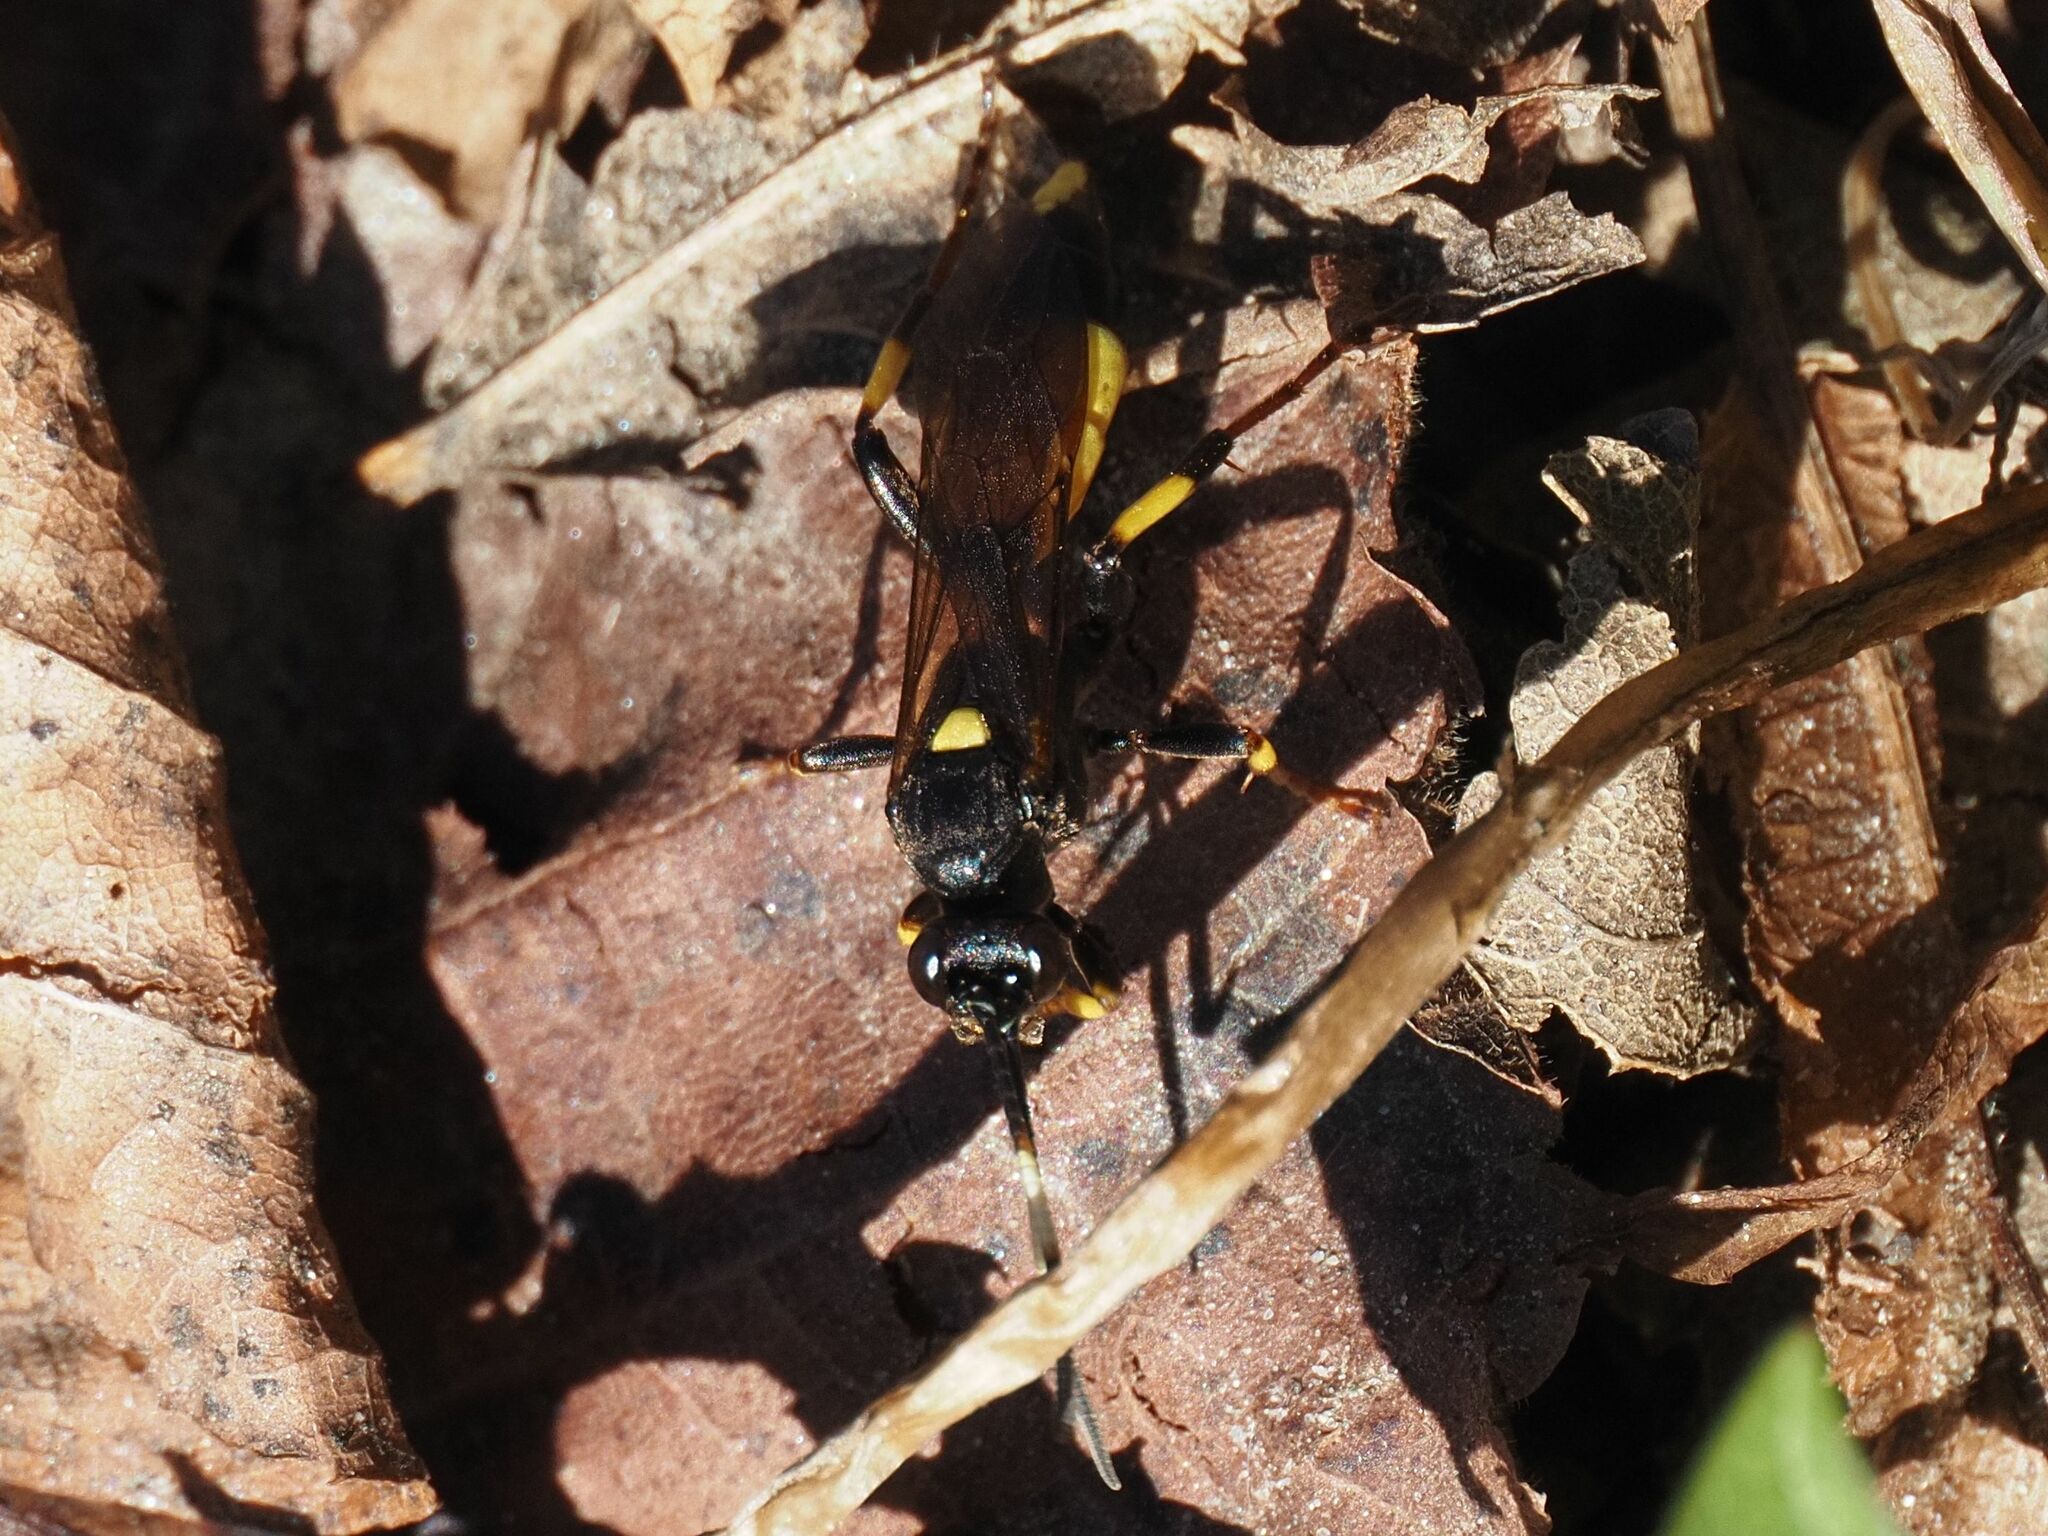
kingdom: Animalia
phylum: Arthropoda
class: Insecta
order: Hymenoptera
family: Ichneumonidae
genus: Ichneumon
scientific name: Ichneumon stramentor
